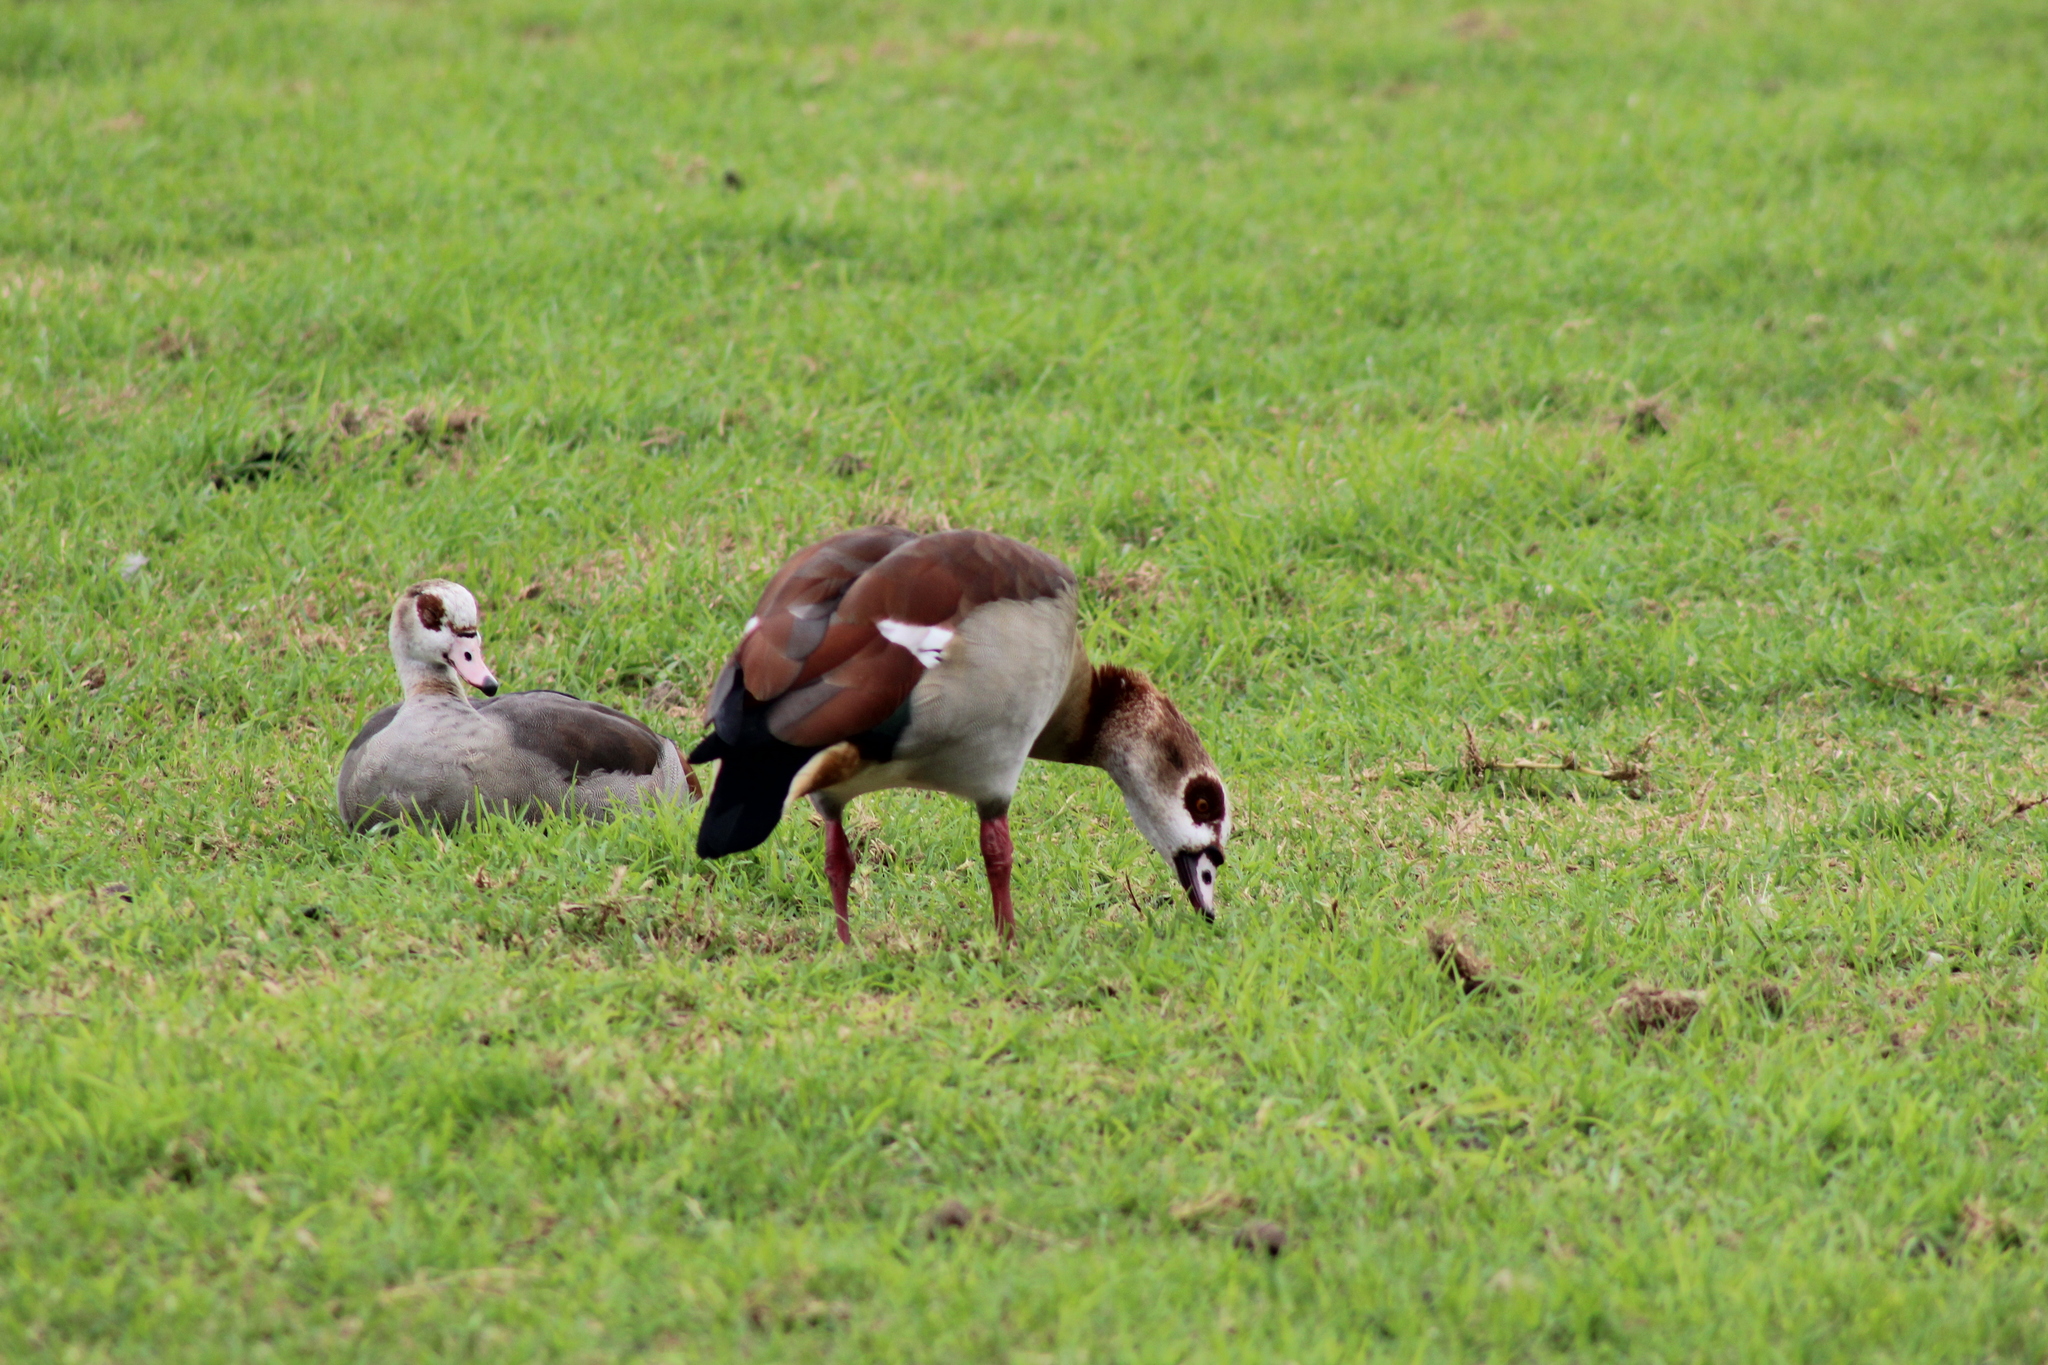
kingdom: Animalia
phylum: Chordata
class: Aves
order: Anseriformes
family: Anatidae
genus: Alopochen
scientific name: Alopochen aegyptiaca
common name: Egyptian goose
